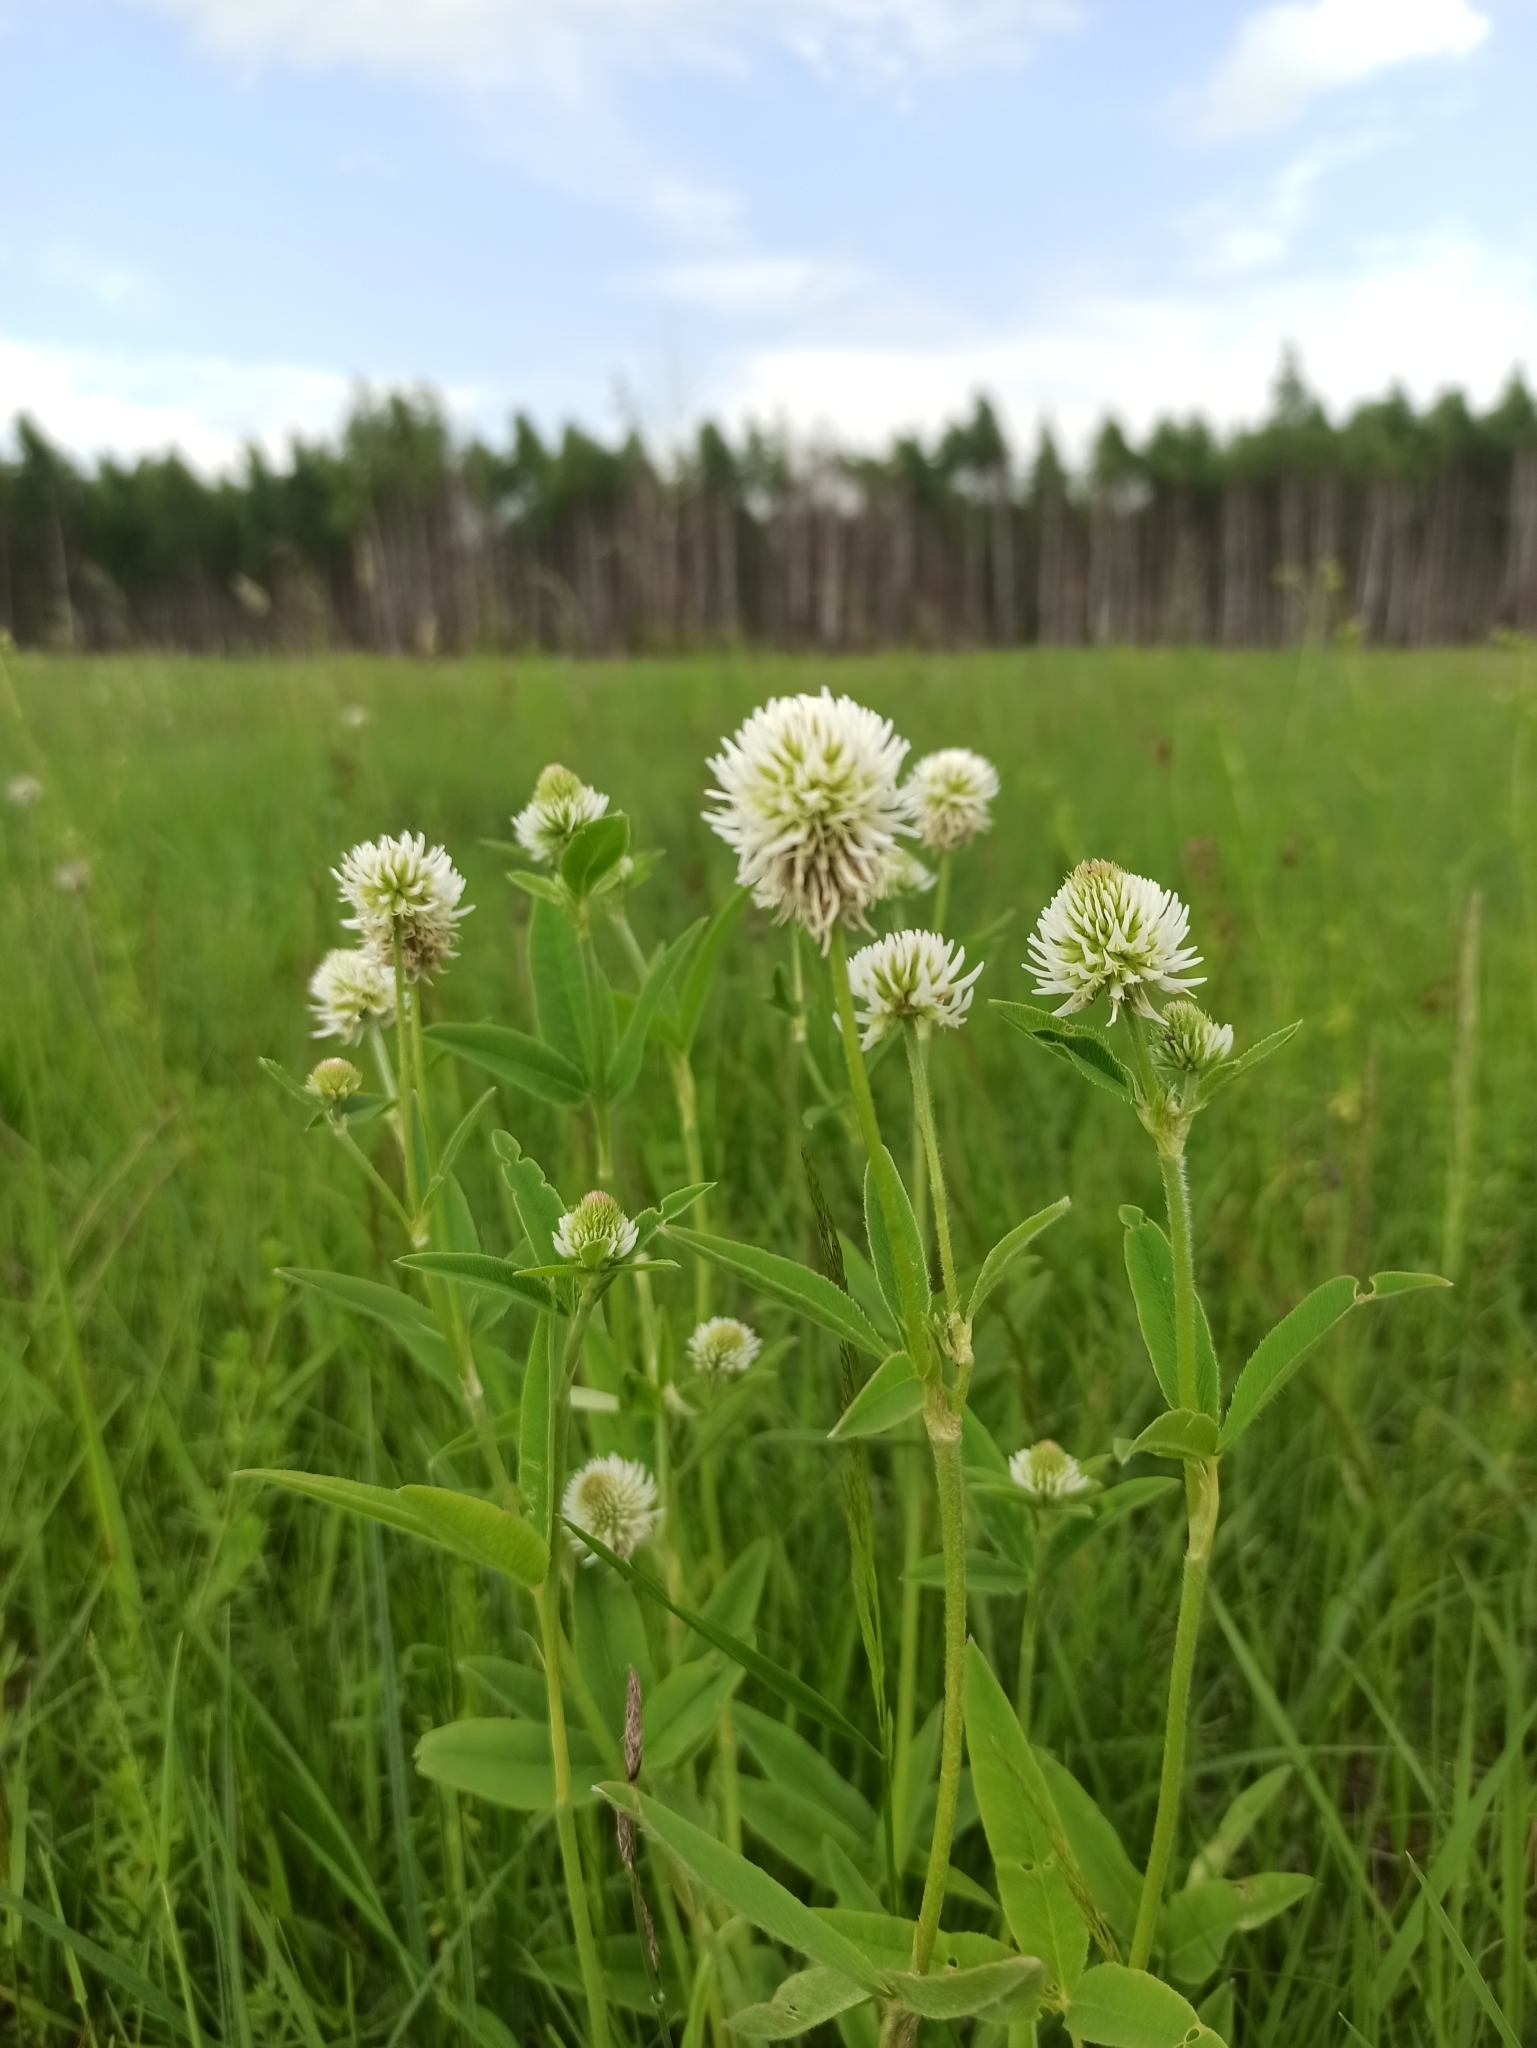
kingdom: Plantae
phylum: Tracheophyta
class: Magnoliopsida
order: Fabales
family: Fabaceae
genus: Trifolium
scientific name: Trifolium montanum
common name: Mountain clover
